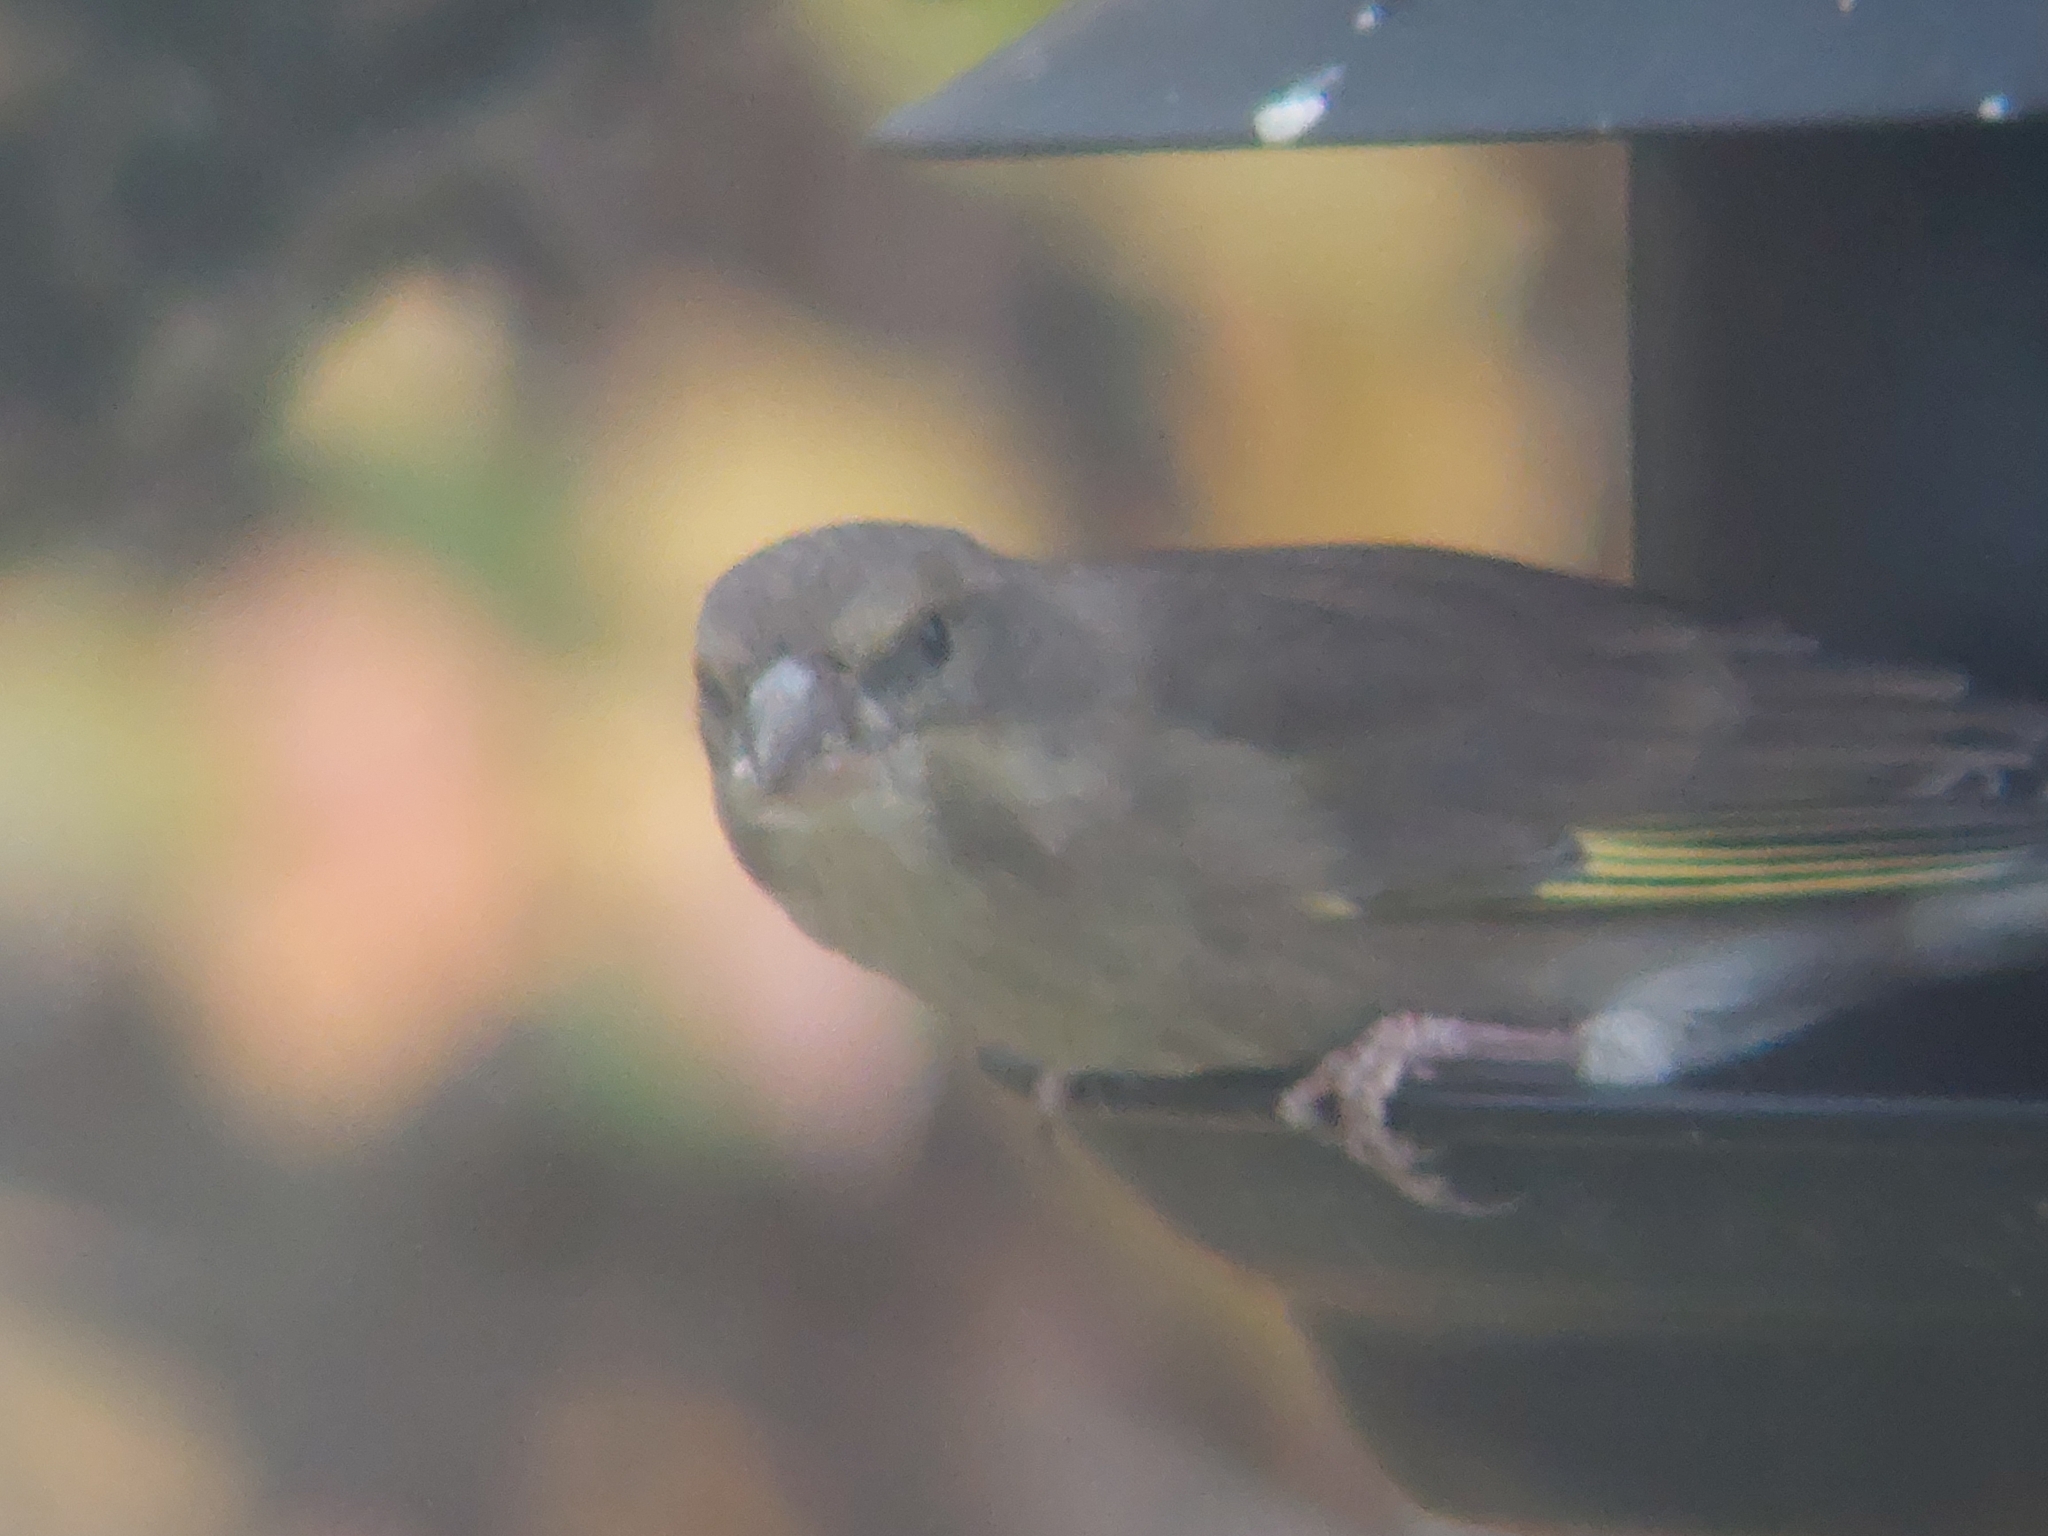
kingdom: Plantae
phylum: Tracheophyta
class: Liliopsida
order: Poales
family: Poaceae
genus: Chloris
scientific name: Chloris chloris
